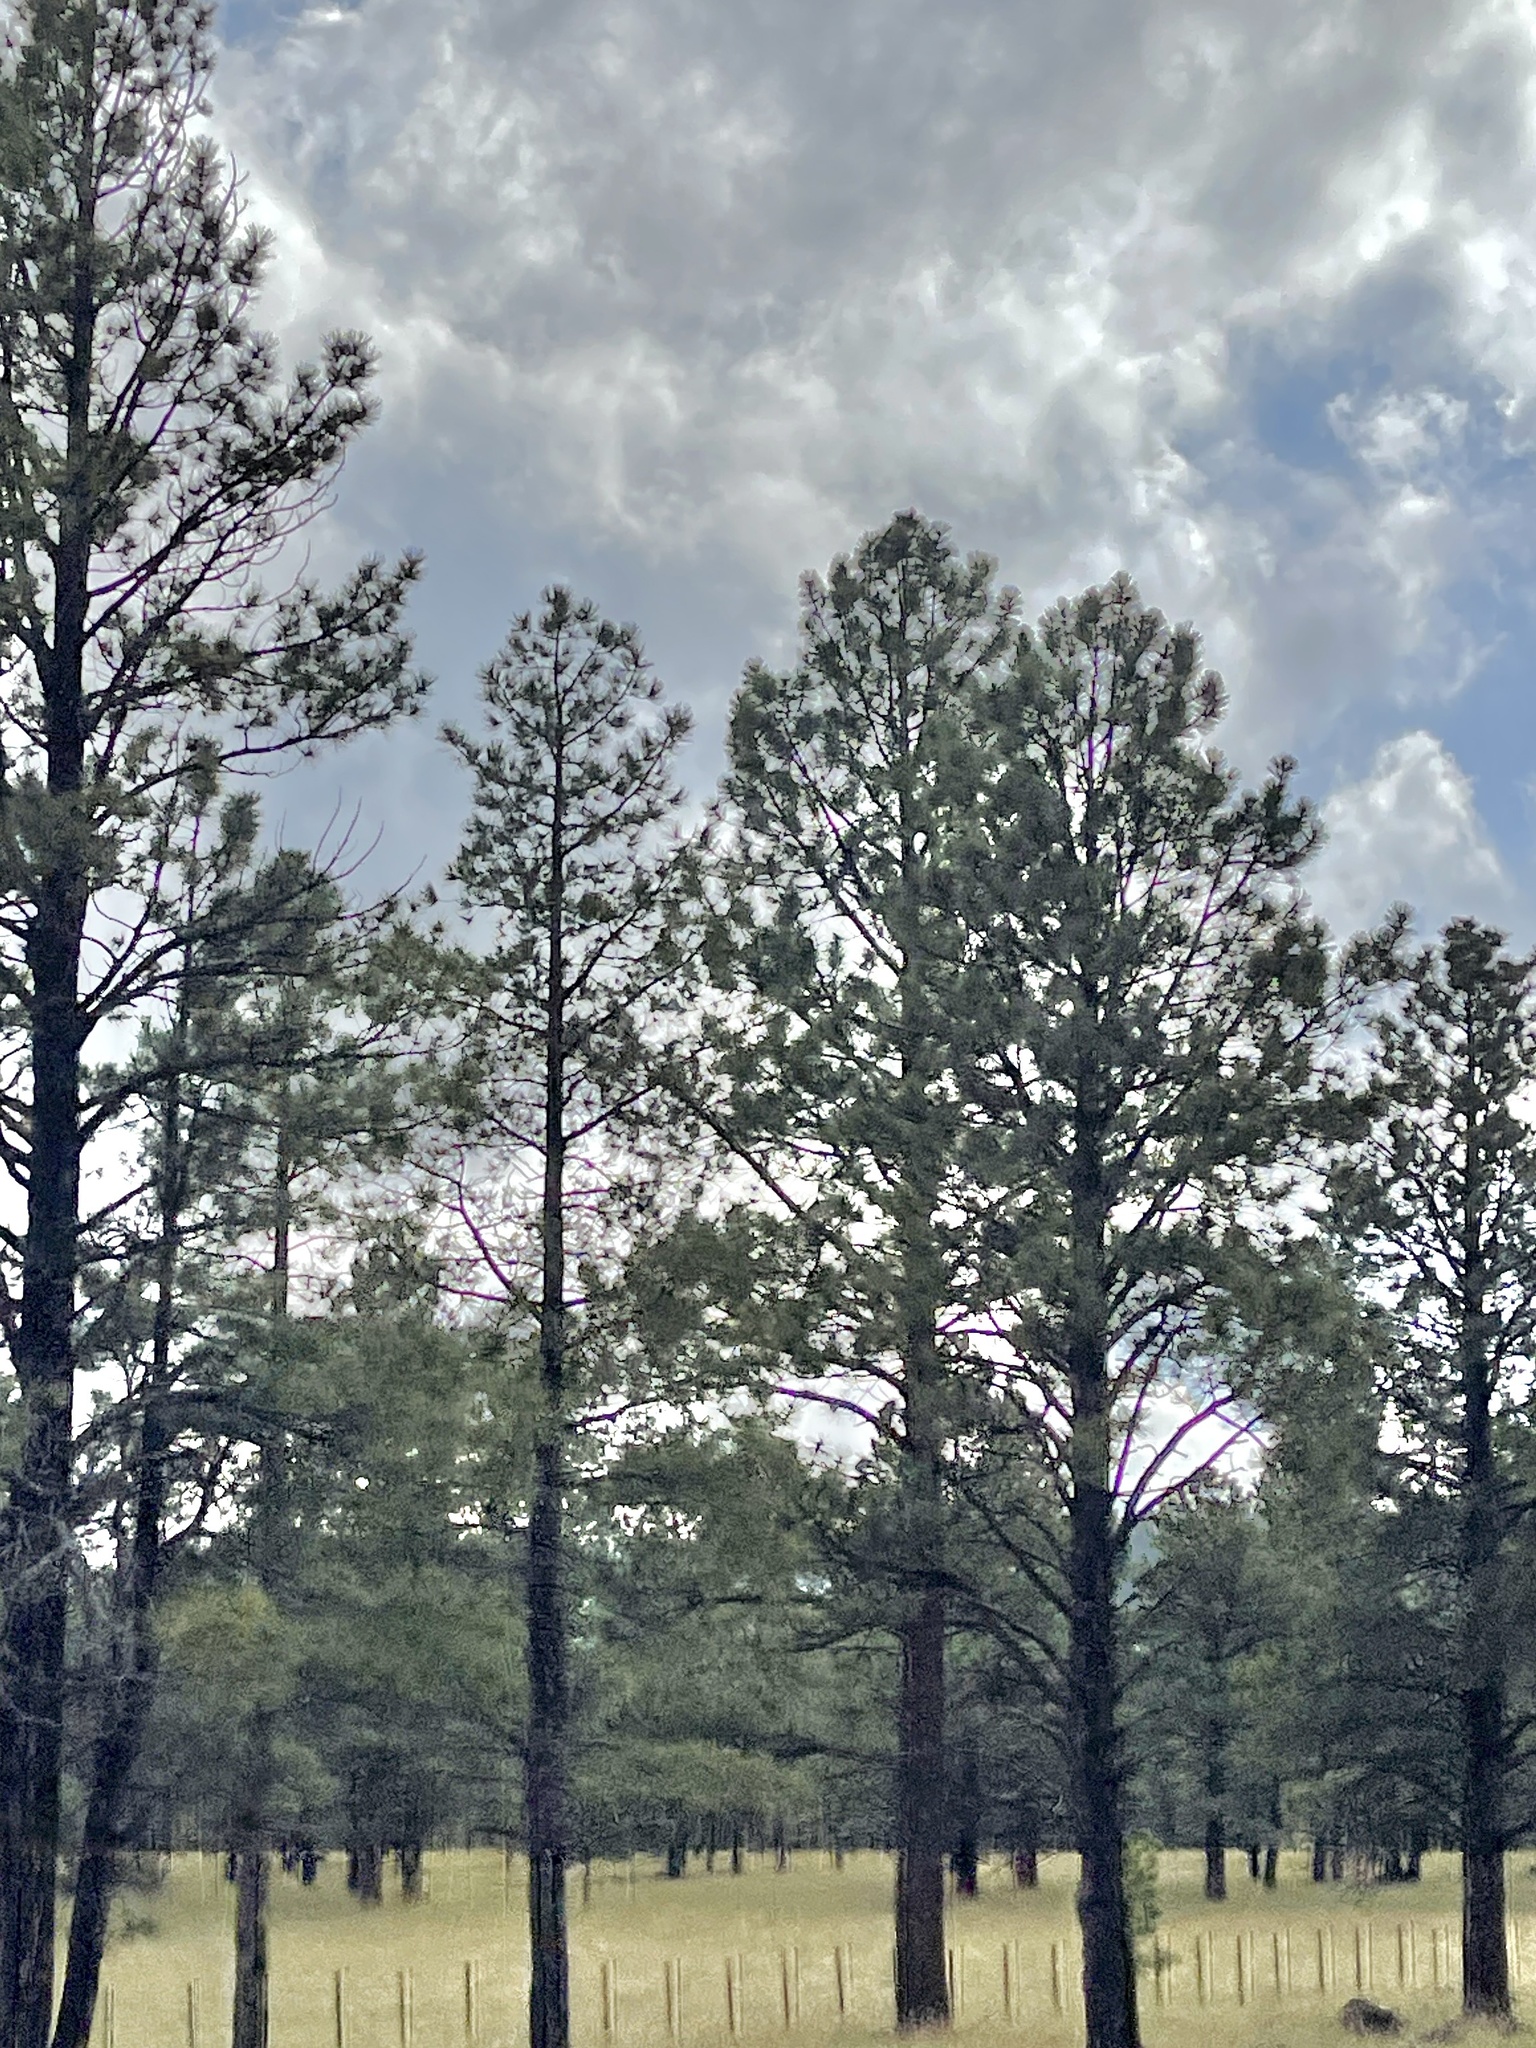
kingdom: Plantae
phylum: Tracheophyta
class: Pinopsida
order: Pinales
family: Pinaceae
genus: Pinus
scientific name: Pinus ponderosa
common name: Western yellow-pine
